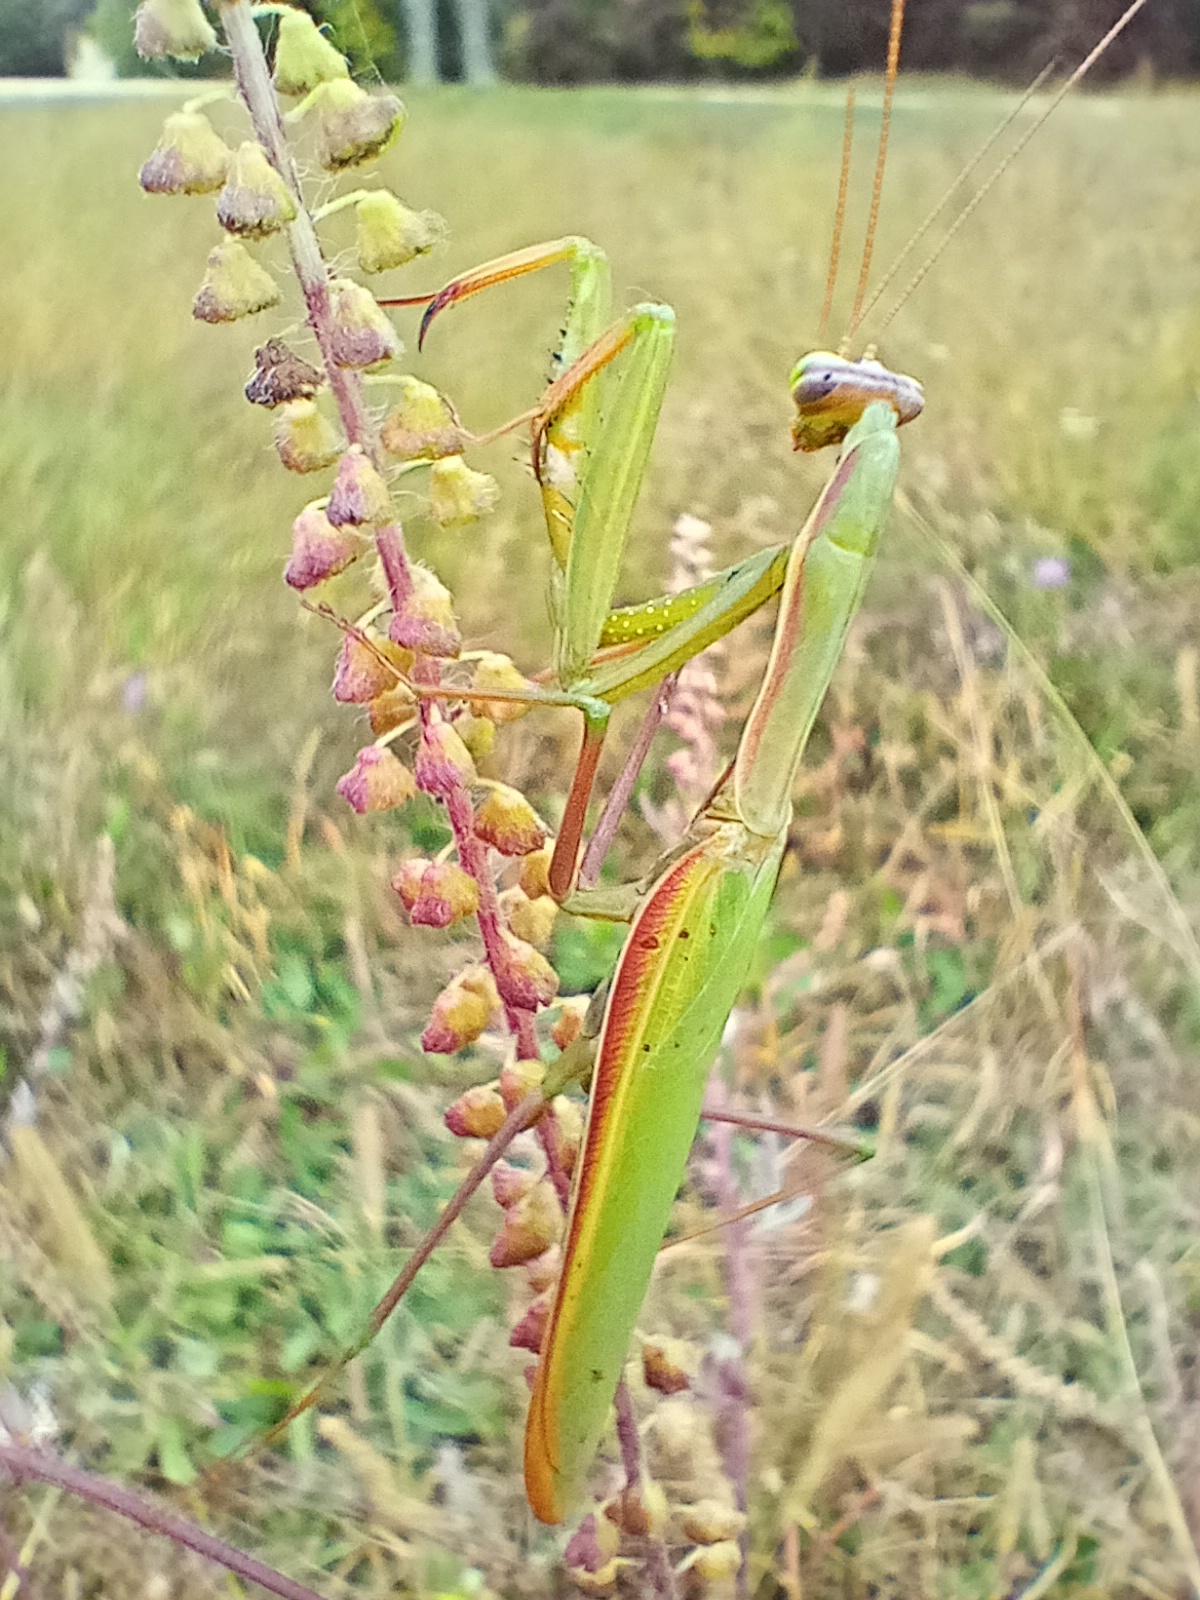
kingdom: Animalia
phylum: Arthropoda
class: Insecta
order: Mantodea
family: Mantidae
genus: Mantis
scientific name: Mantis religiosa
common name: Praying mantis
